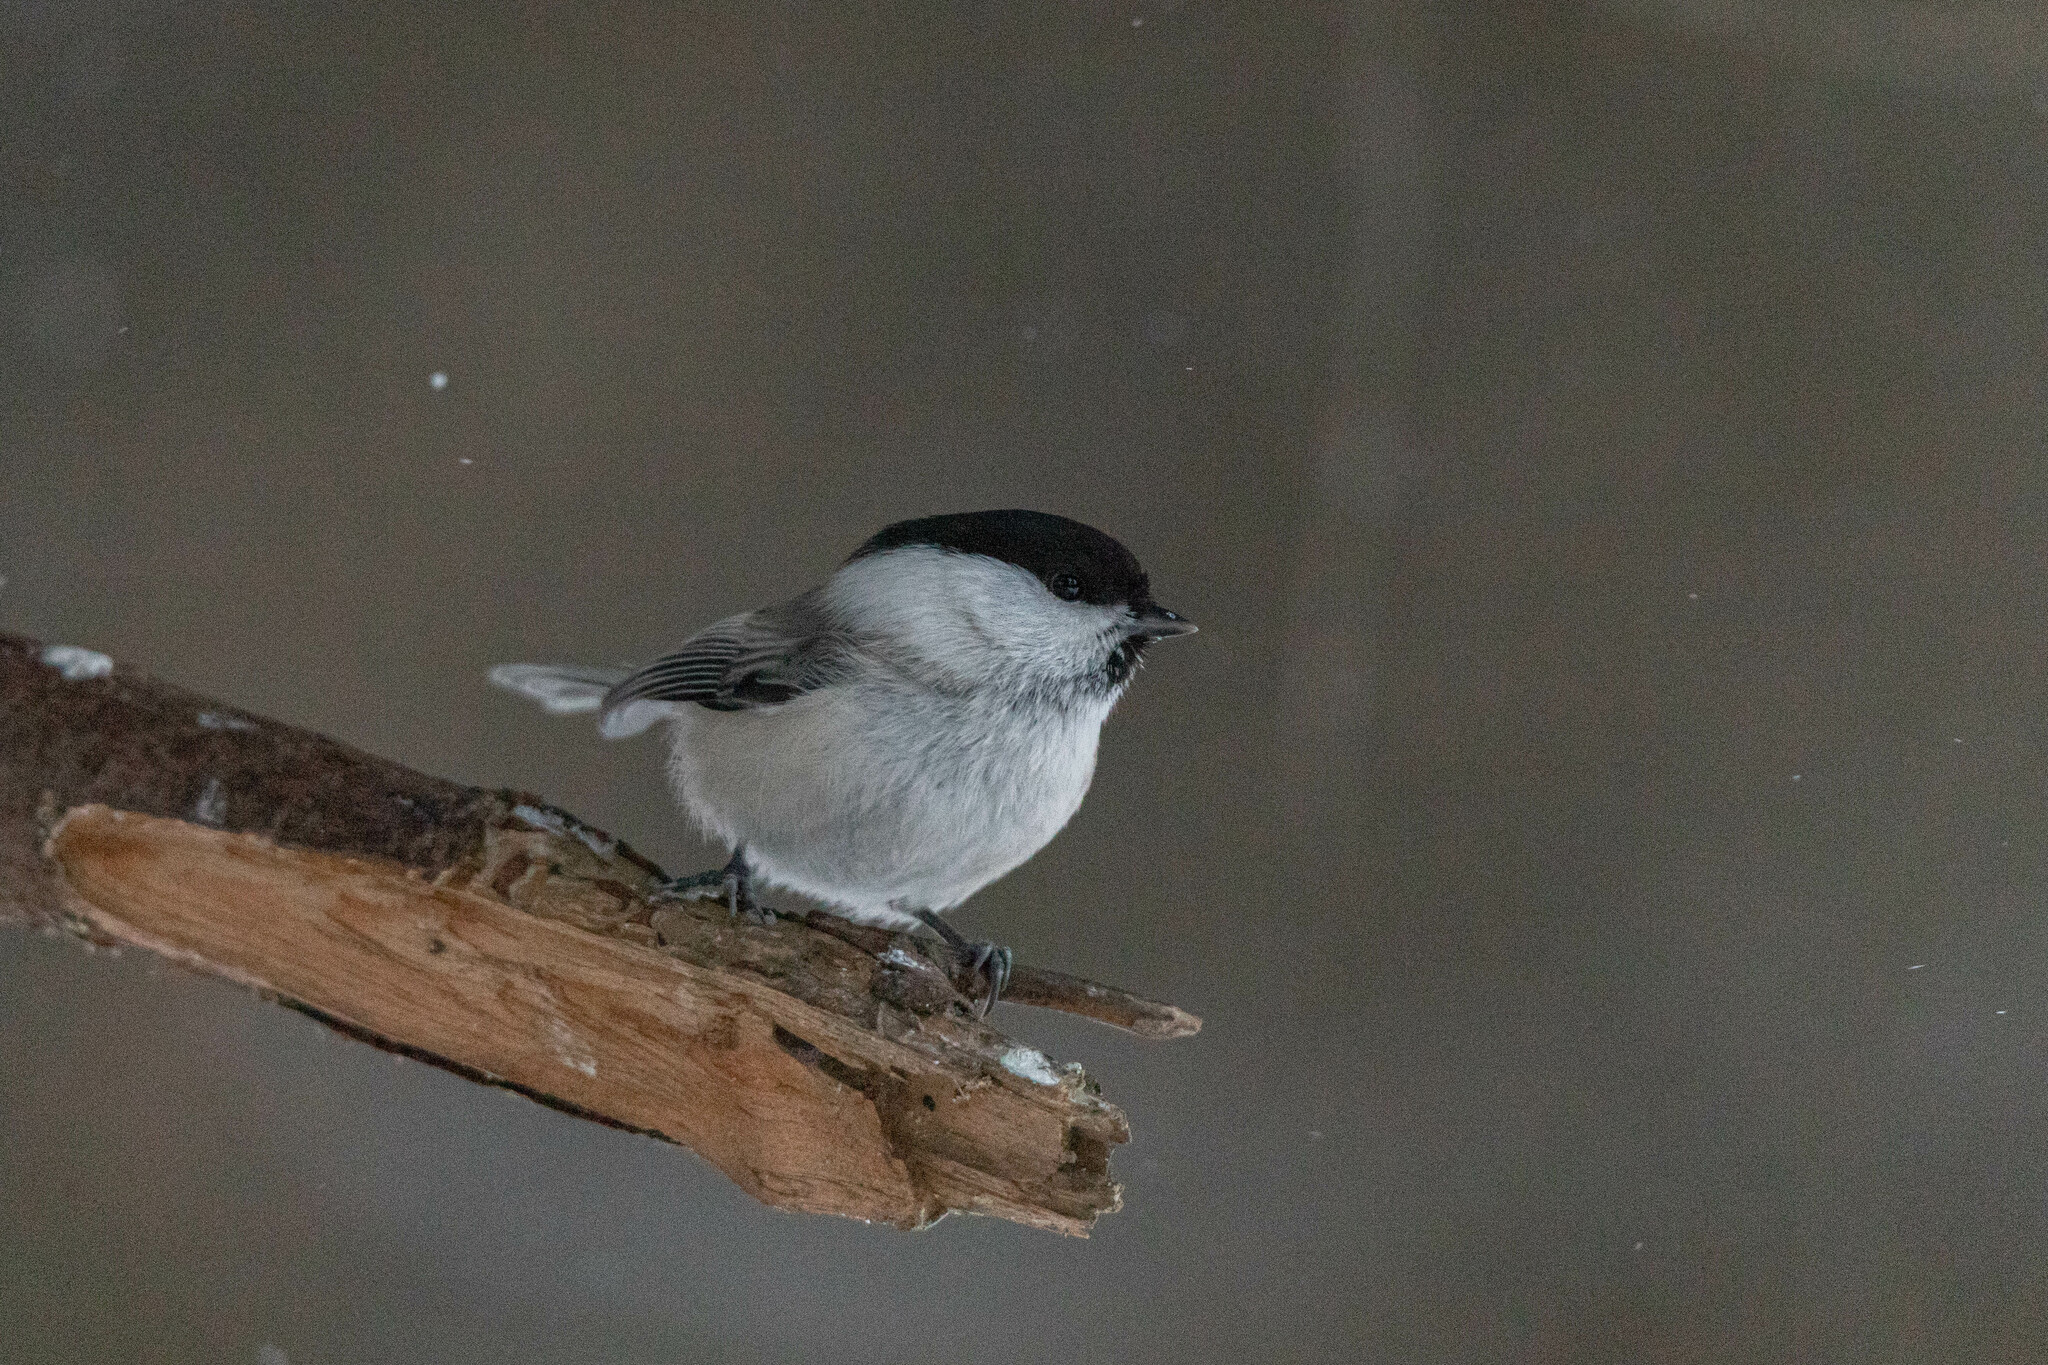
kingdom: Animalia
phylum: Chordata
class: Aves
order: Passeriformes
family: Paridae
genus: Poecile
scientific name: Poecile montanus
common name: Willow tit
